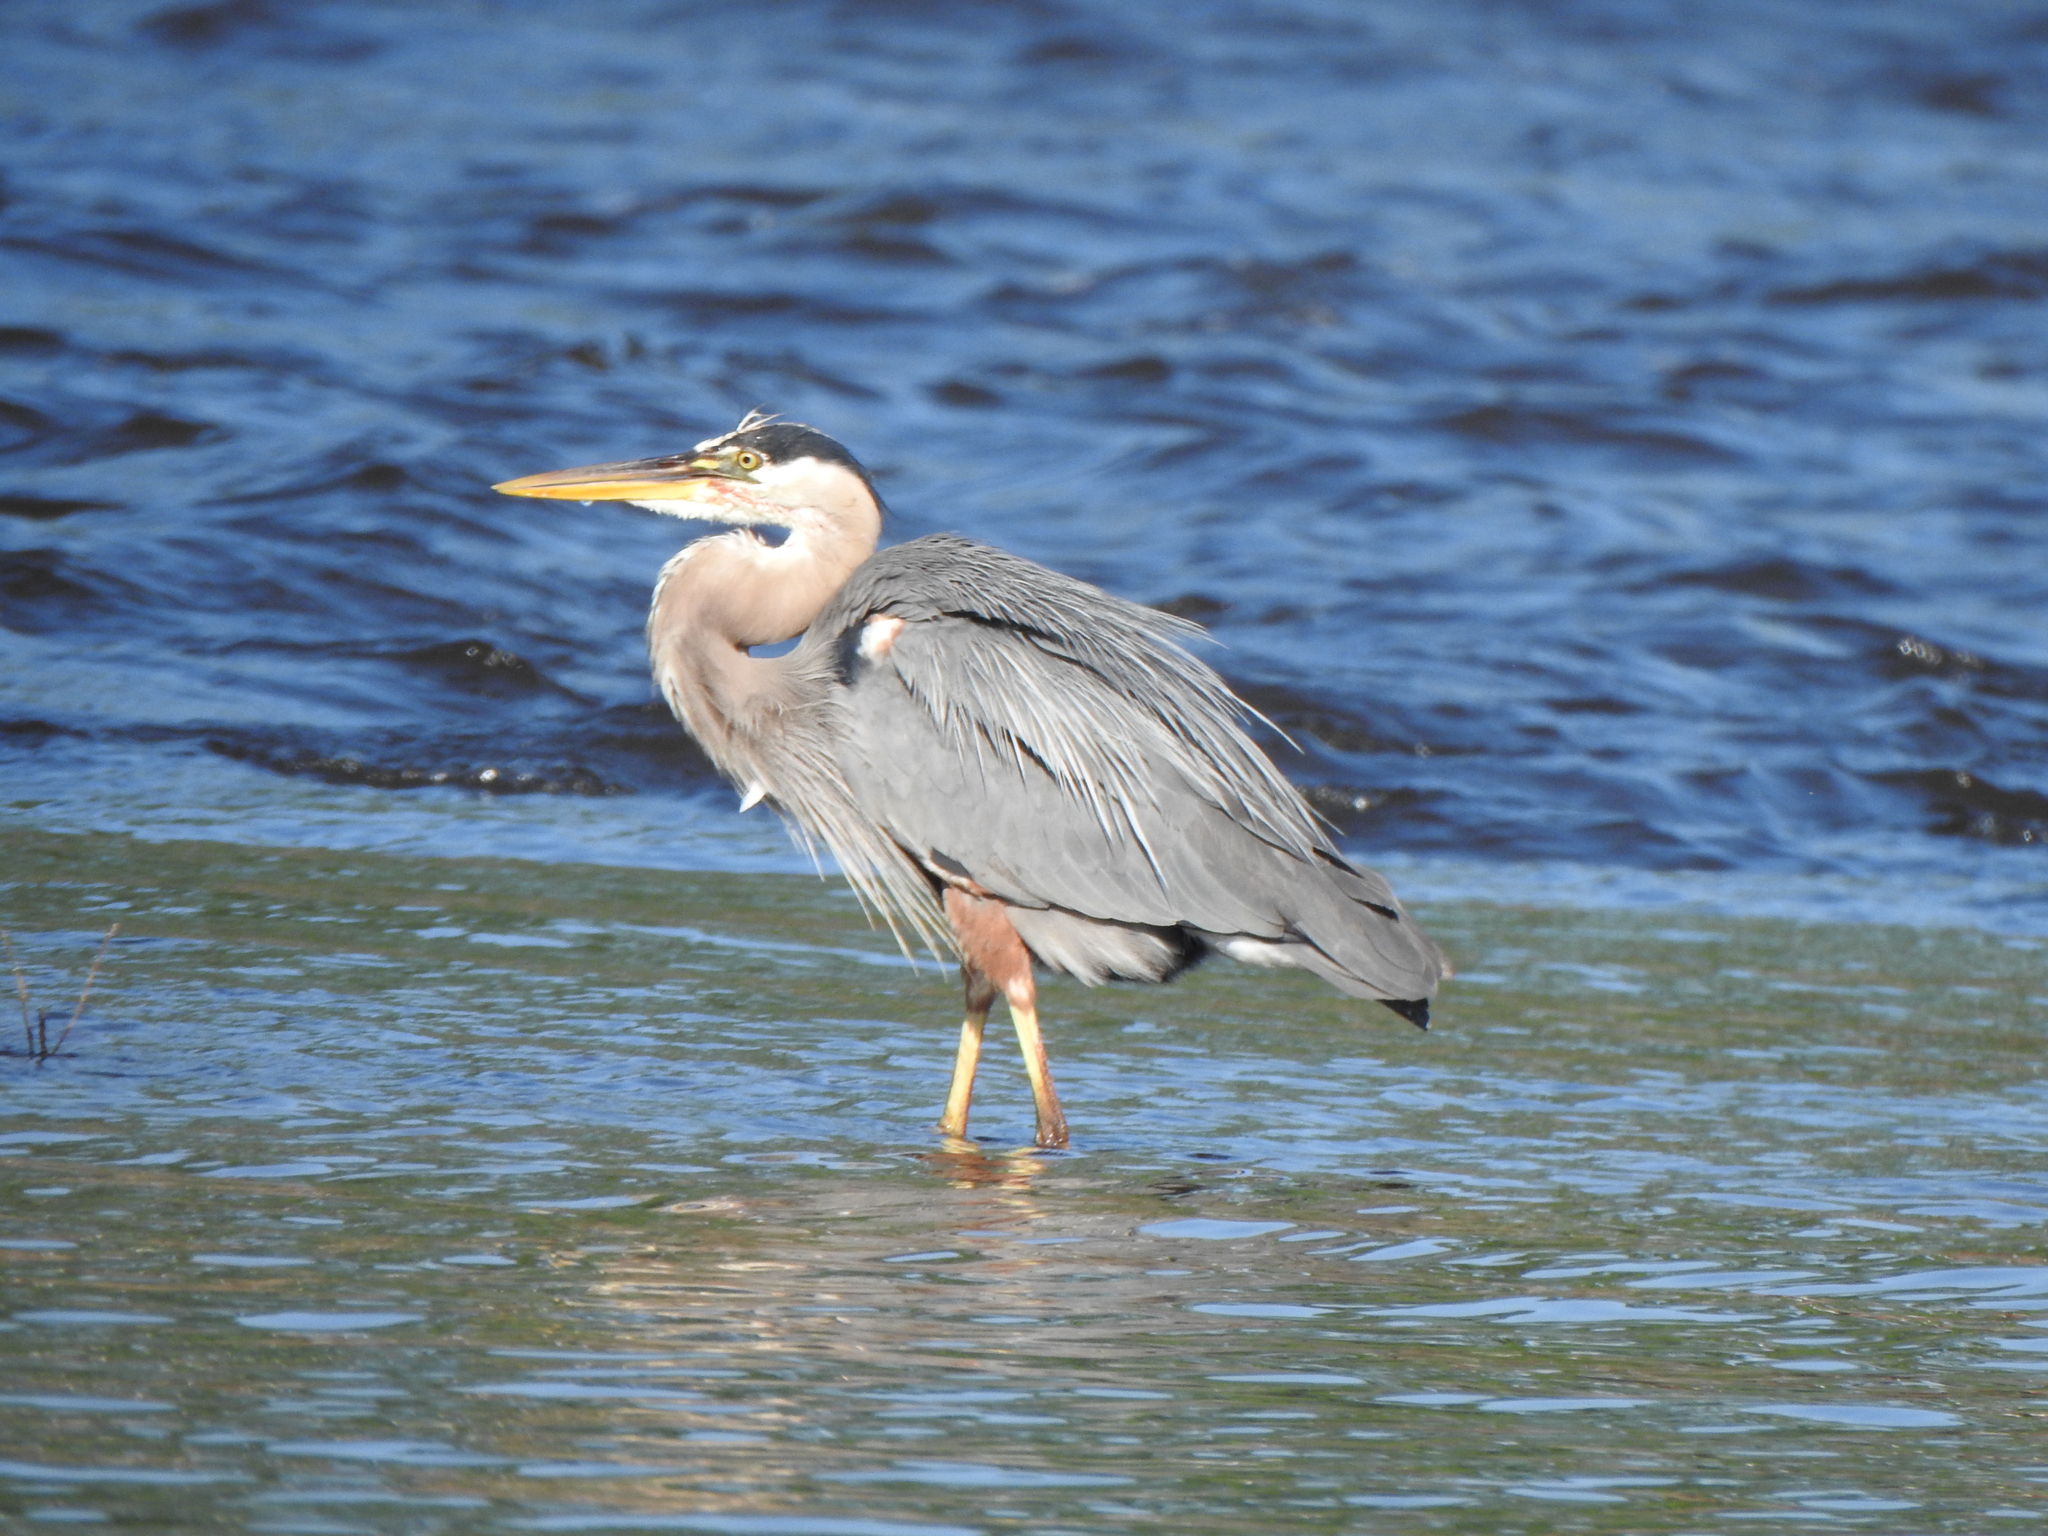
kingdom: Animalia
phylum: Chordata
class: Aves
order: Pelecaniformes
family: Ardeidae
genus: Ardea
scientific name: Ardea herodias
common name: Great blue heron
